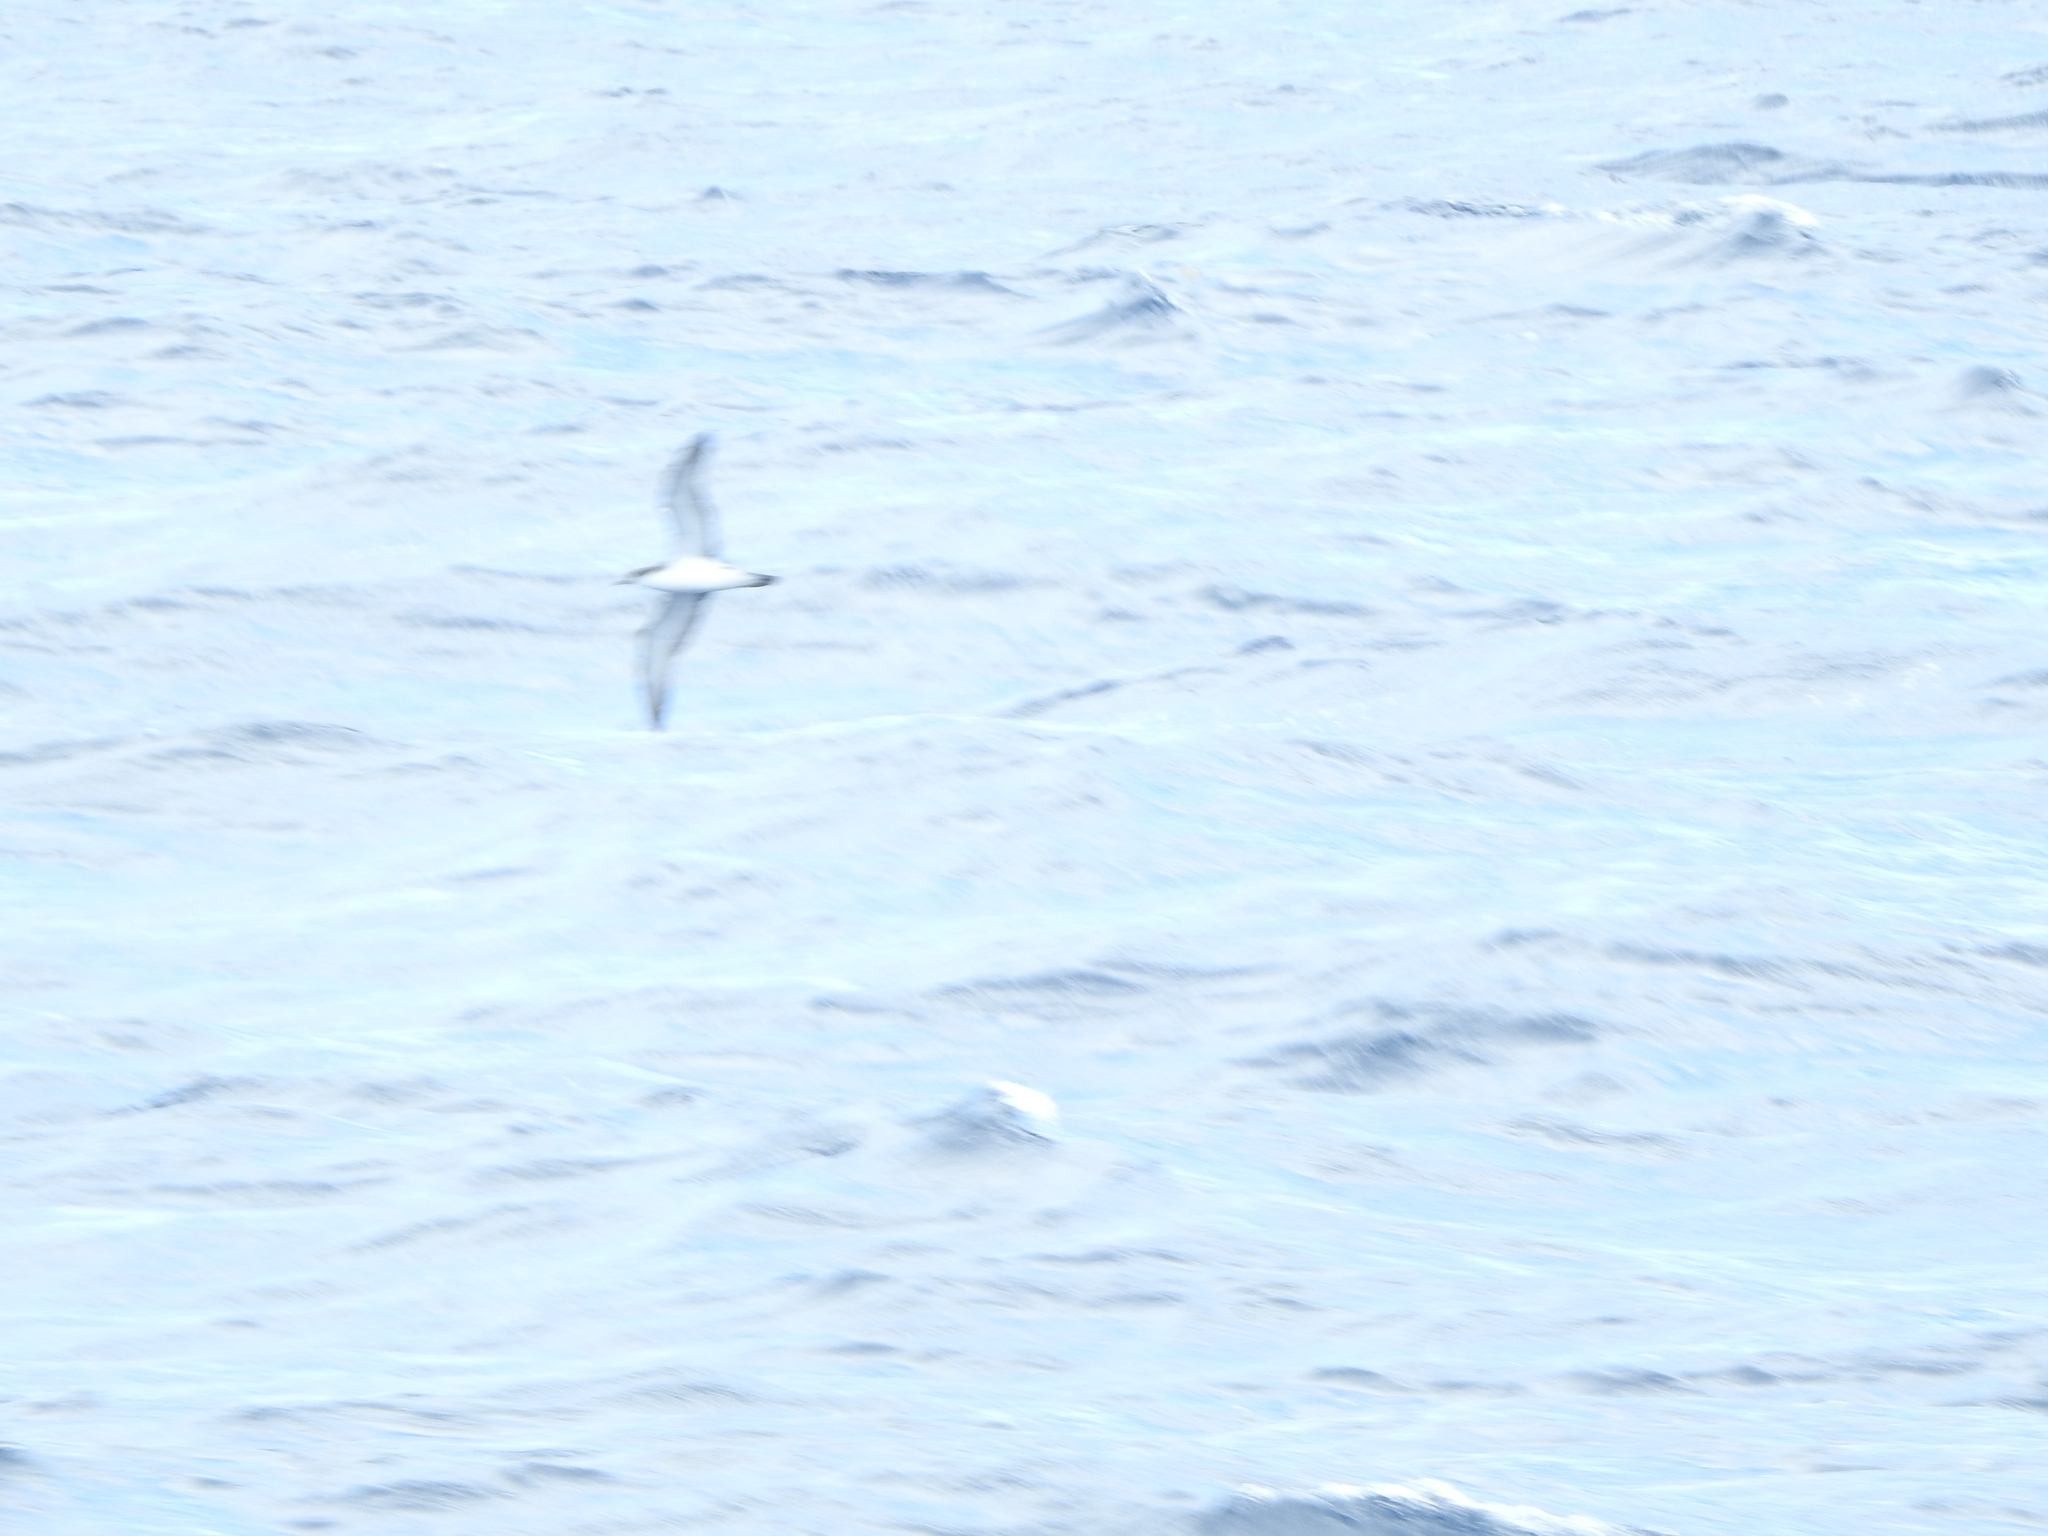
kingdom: Animalia
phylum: Chordata
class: Aves
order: Procellariiformes
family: Procellariidae
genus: Puffinus
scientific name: Puffinus bulleri
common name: Buller's shearwater
